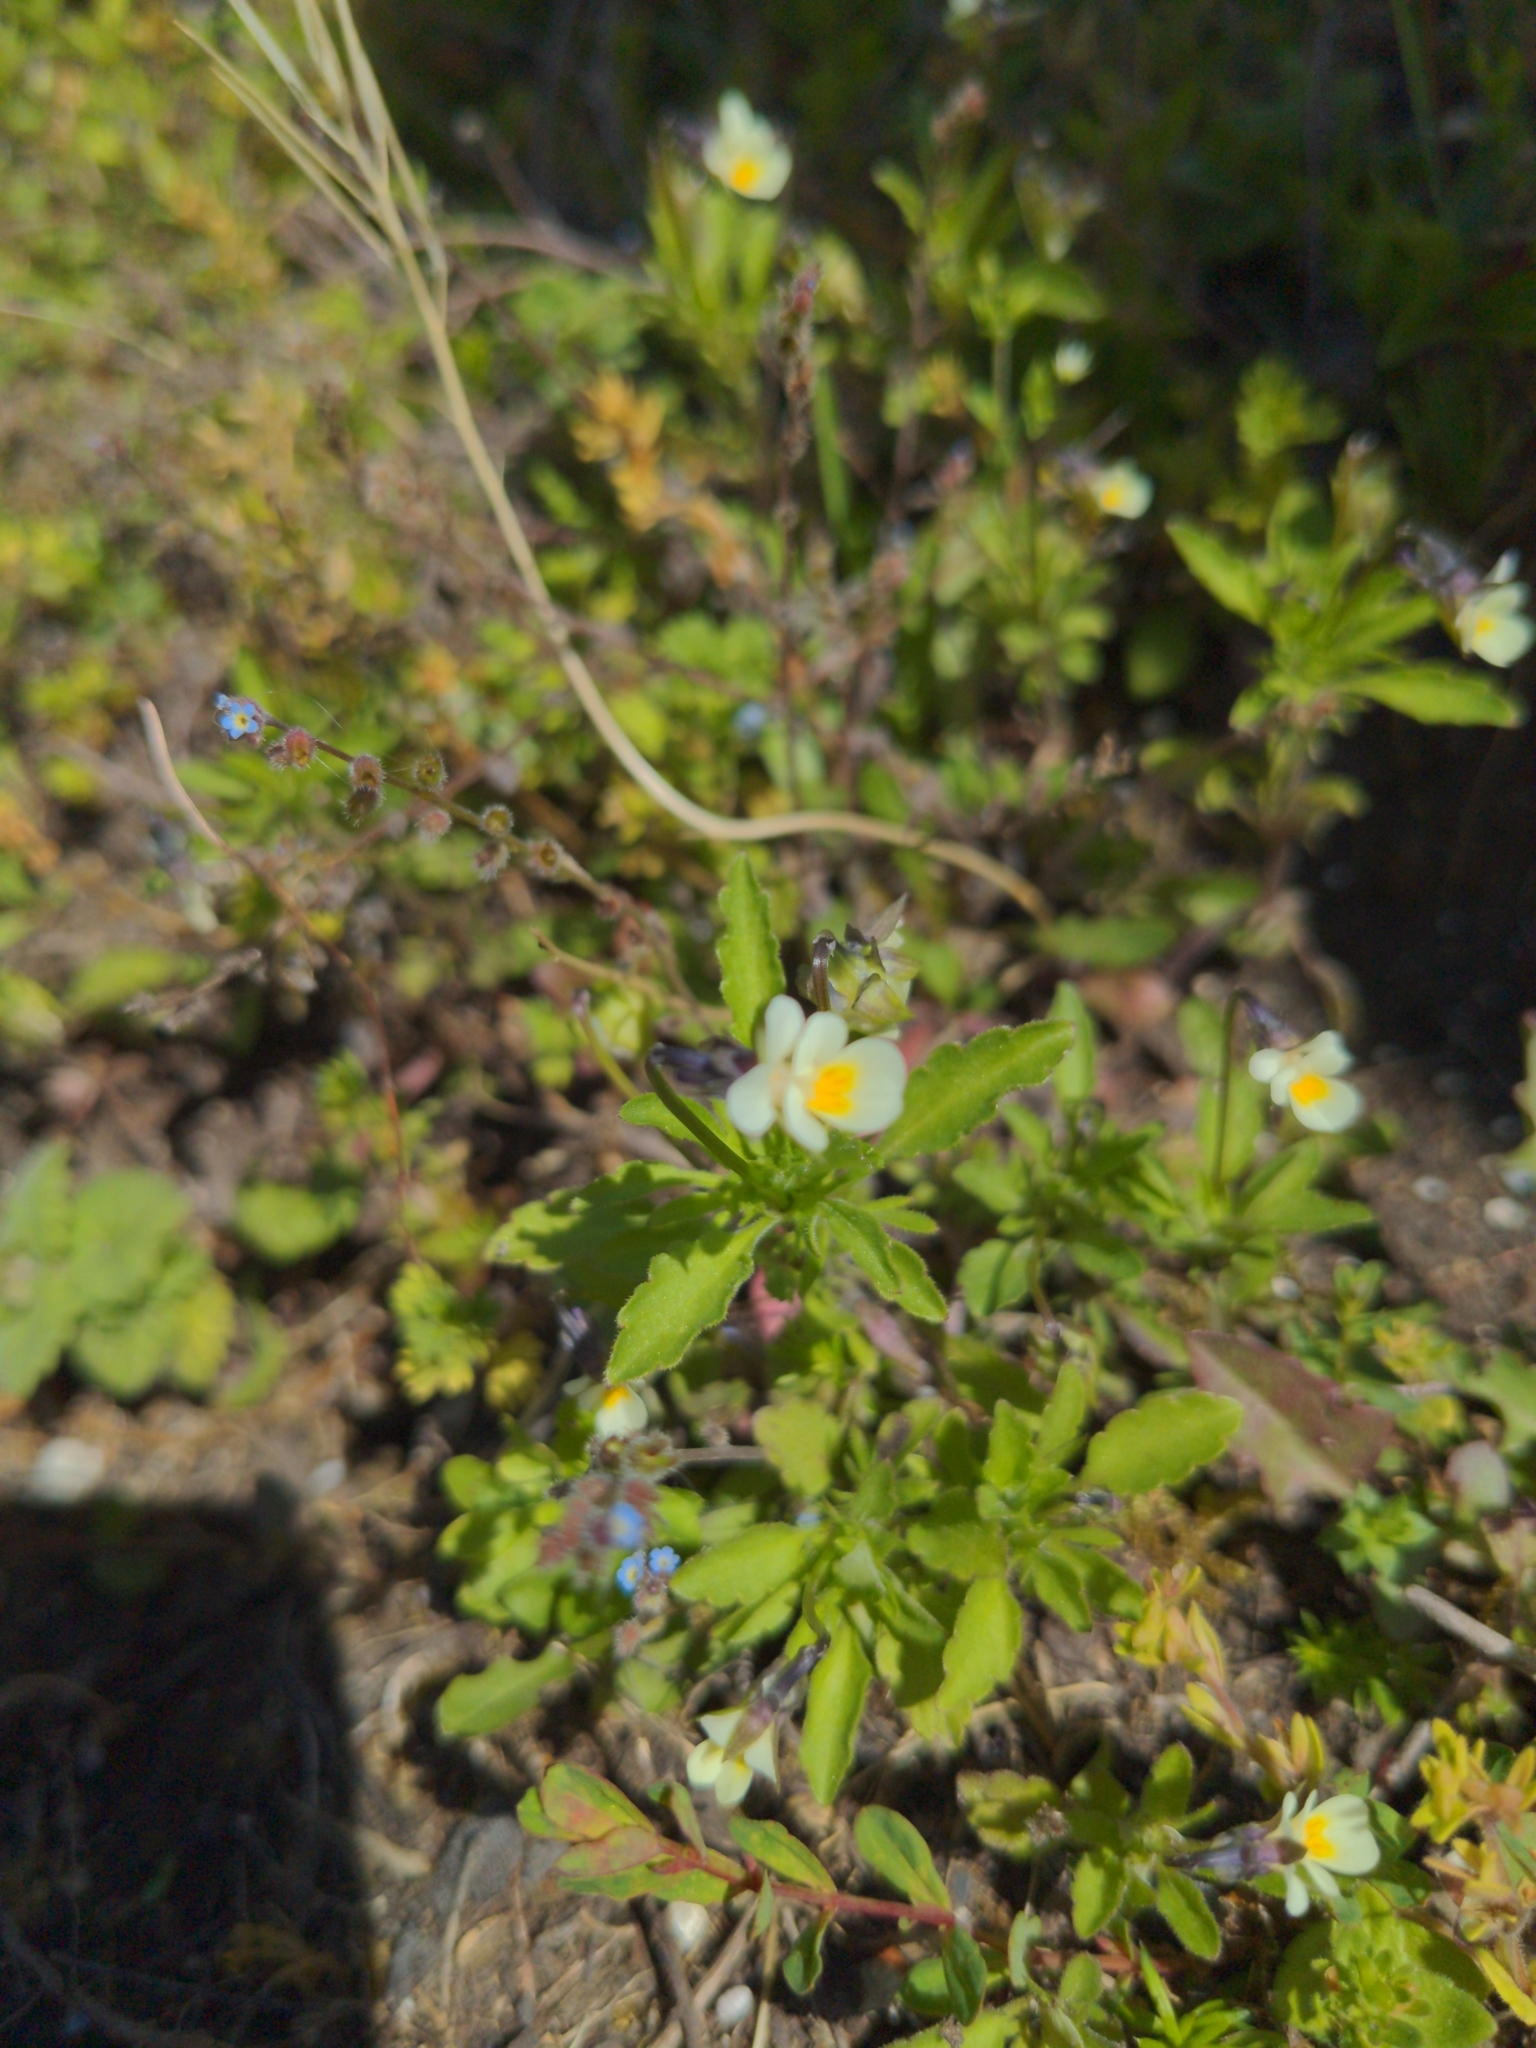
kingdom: Plantae
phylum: Tracheophyta
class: Magnoliopsida
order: Malpighiales
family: Violaceae
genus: Viola
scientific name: Viola arvensis
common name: Field pansy
